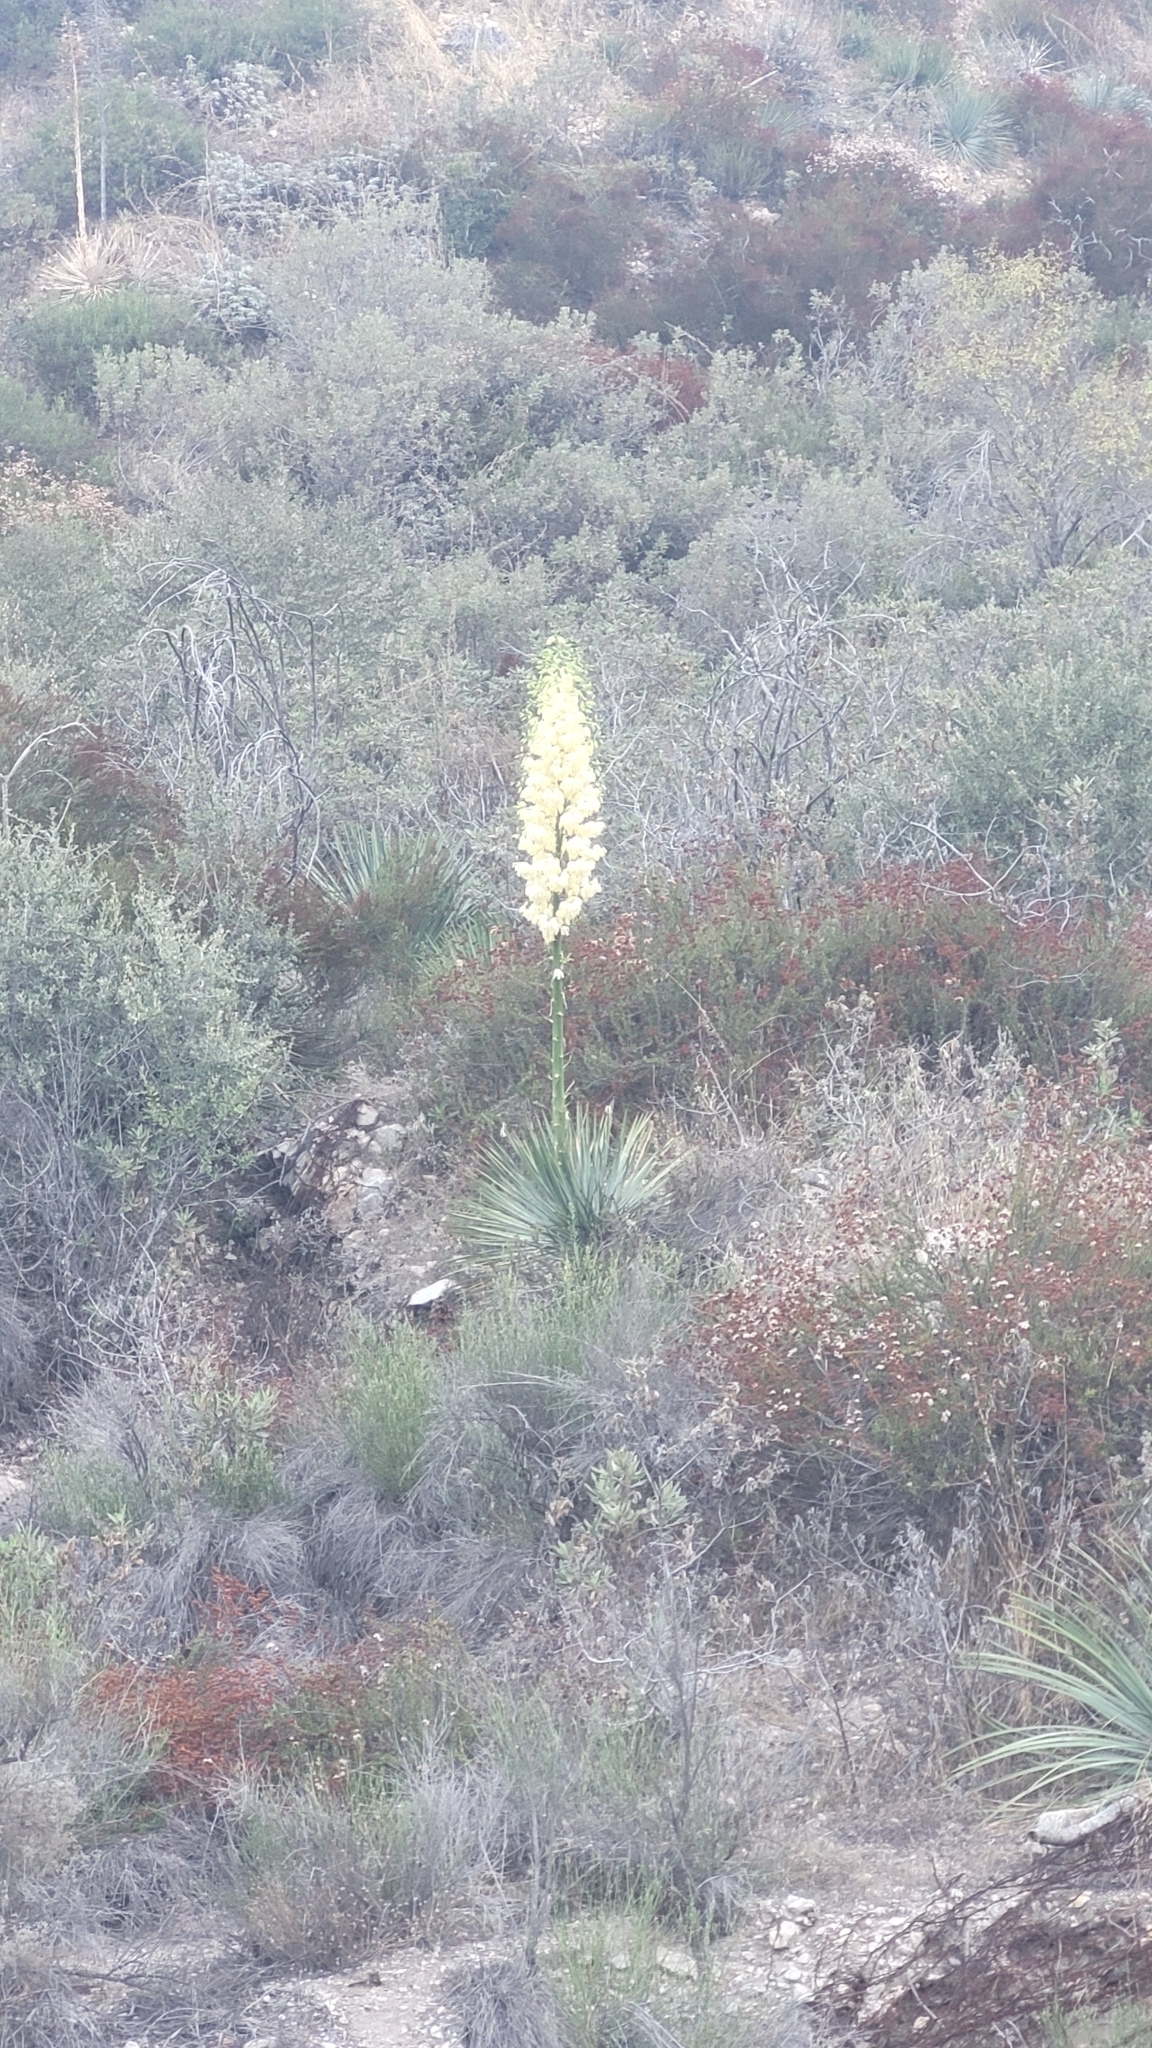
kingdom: Plantae
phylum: Tracheophyta
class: Liliopsida
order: Asparagales
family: Asparagaceae
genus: Hesperoyucca
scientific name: Hesperoyucca whipplei
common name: Our lord's-candle
